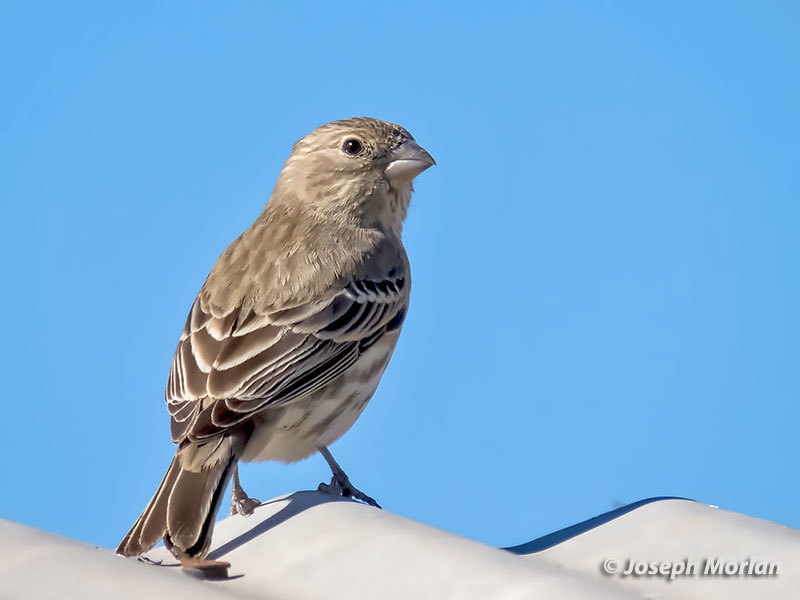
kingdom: Animalia
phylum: Chordata
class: Aves
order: Passeriformes
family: Fringillidae
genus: Haemorhous
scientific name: Haemorhous mexicanus
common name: House finch
